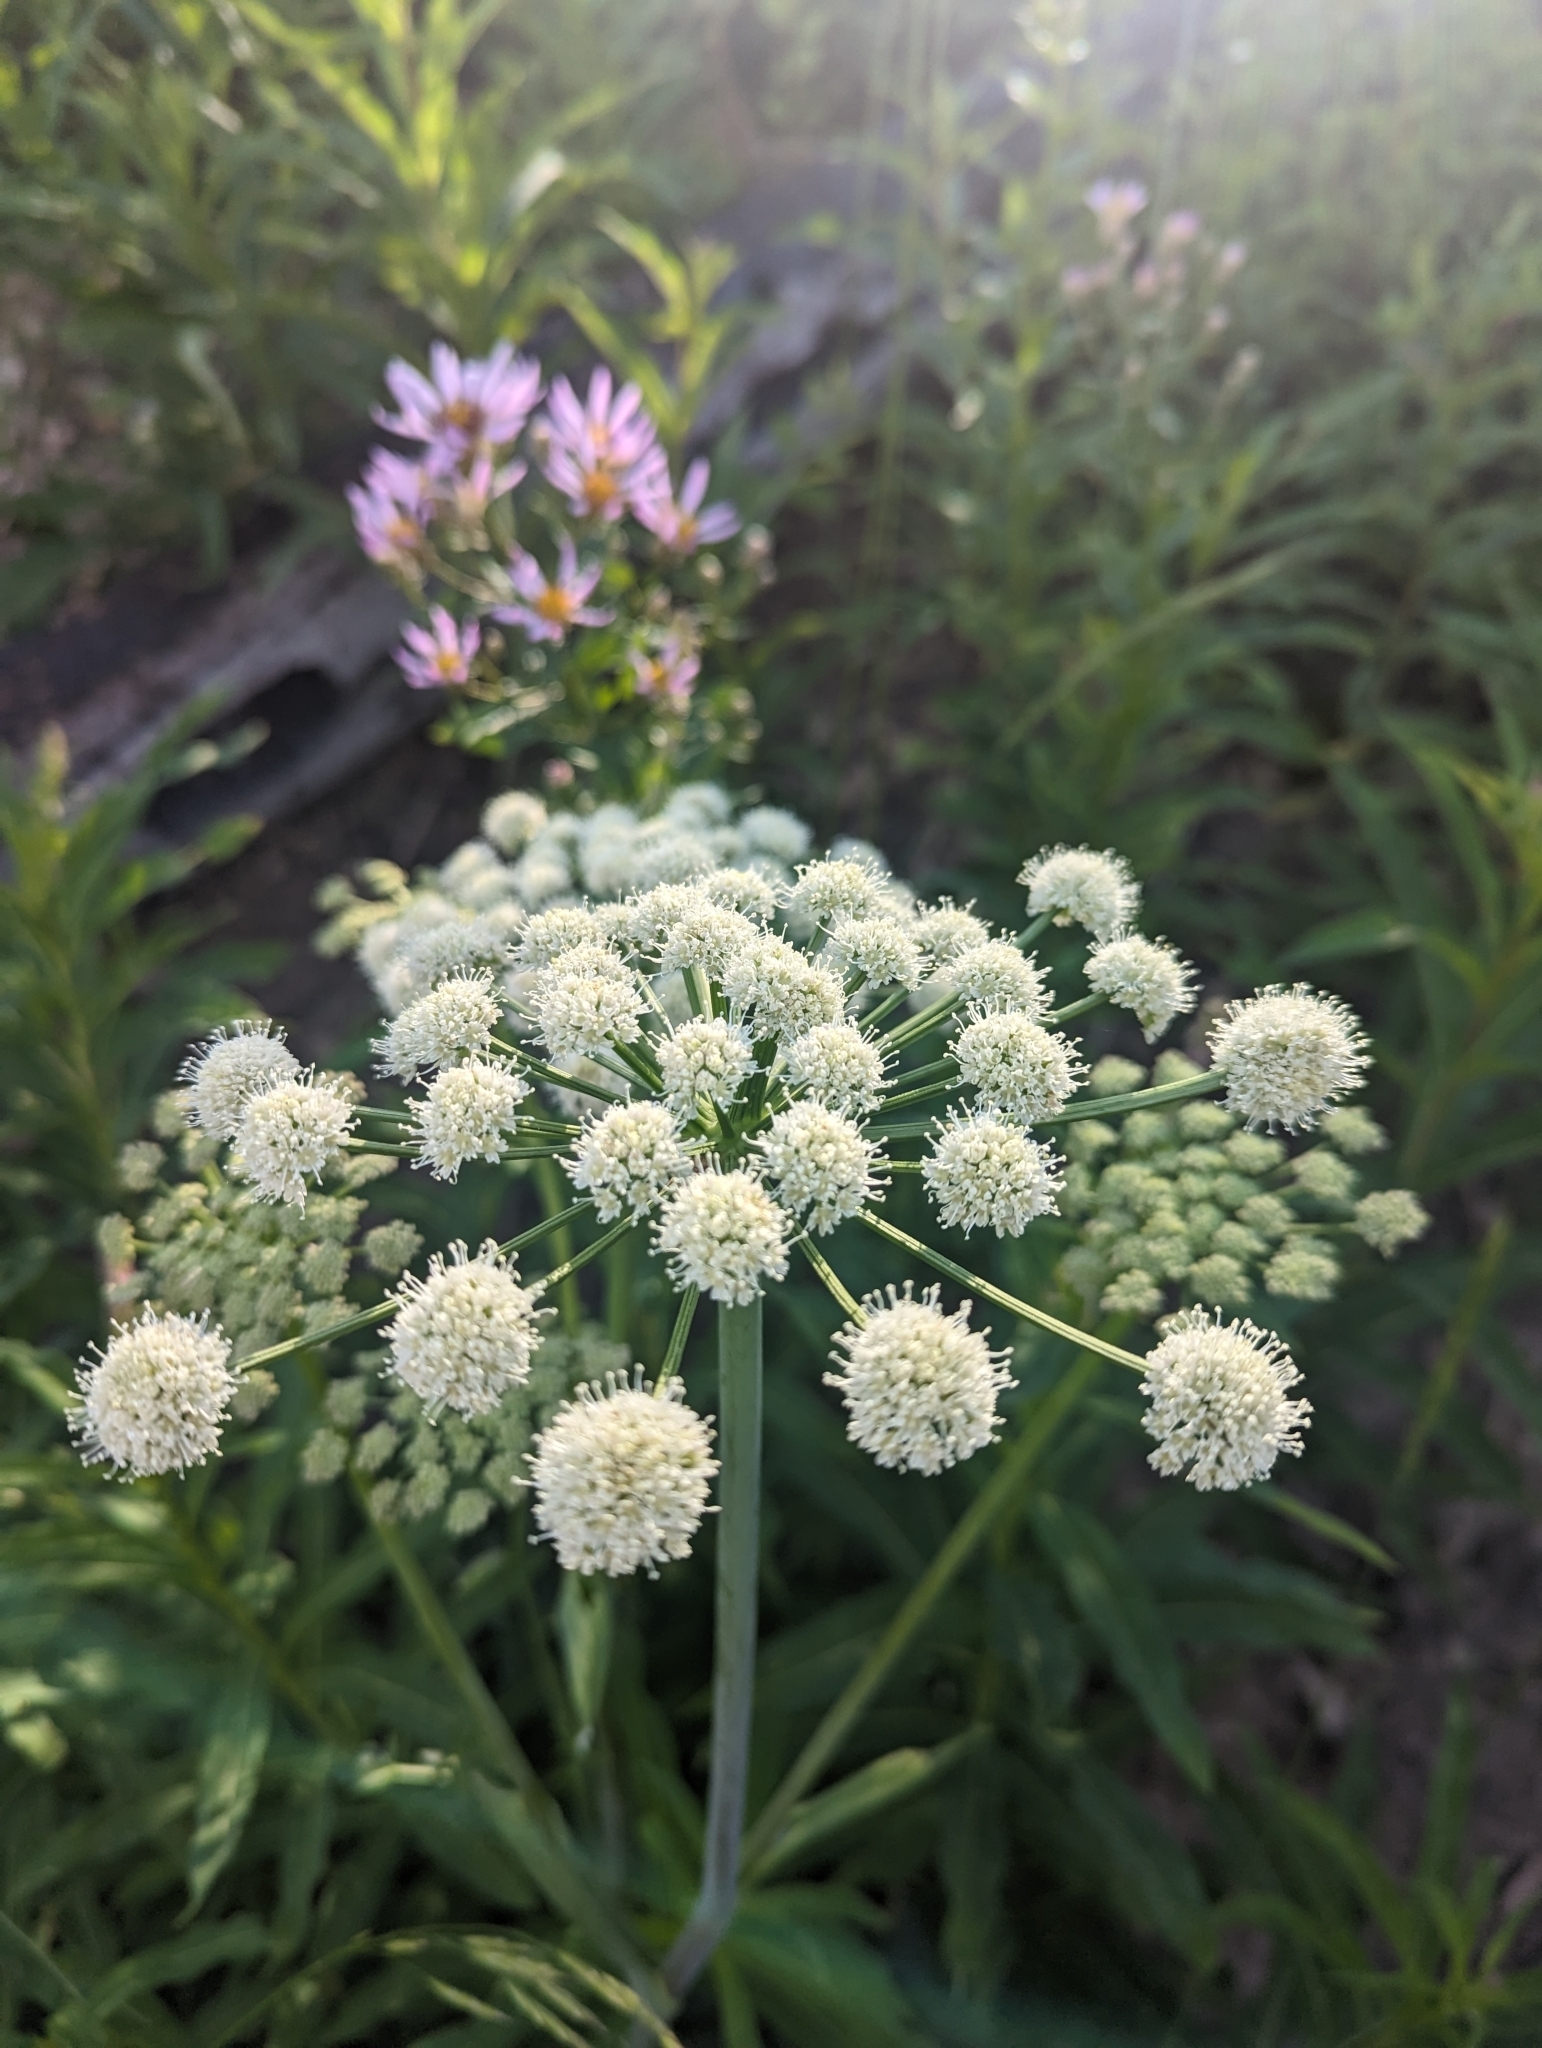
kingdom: Plantae
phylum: Tracheophyta
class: Magnoliopsida
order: Apiales
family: Apiaceae
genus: Angelica
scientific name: Angelica arguta
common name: Lyall's angelica
